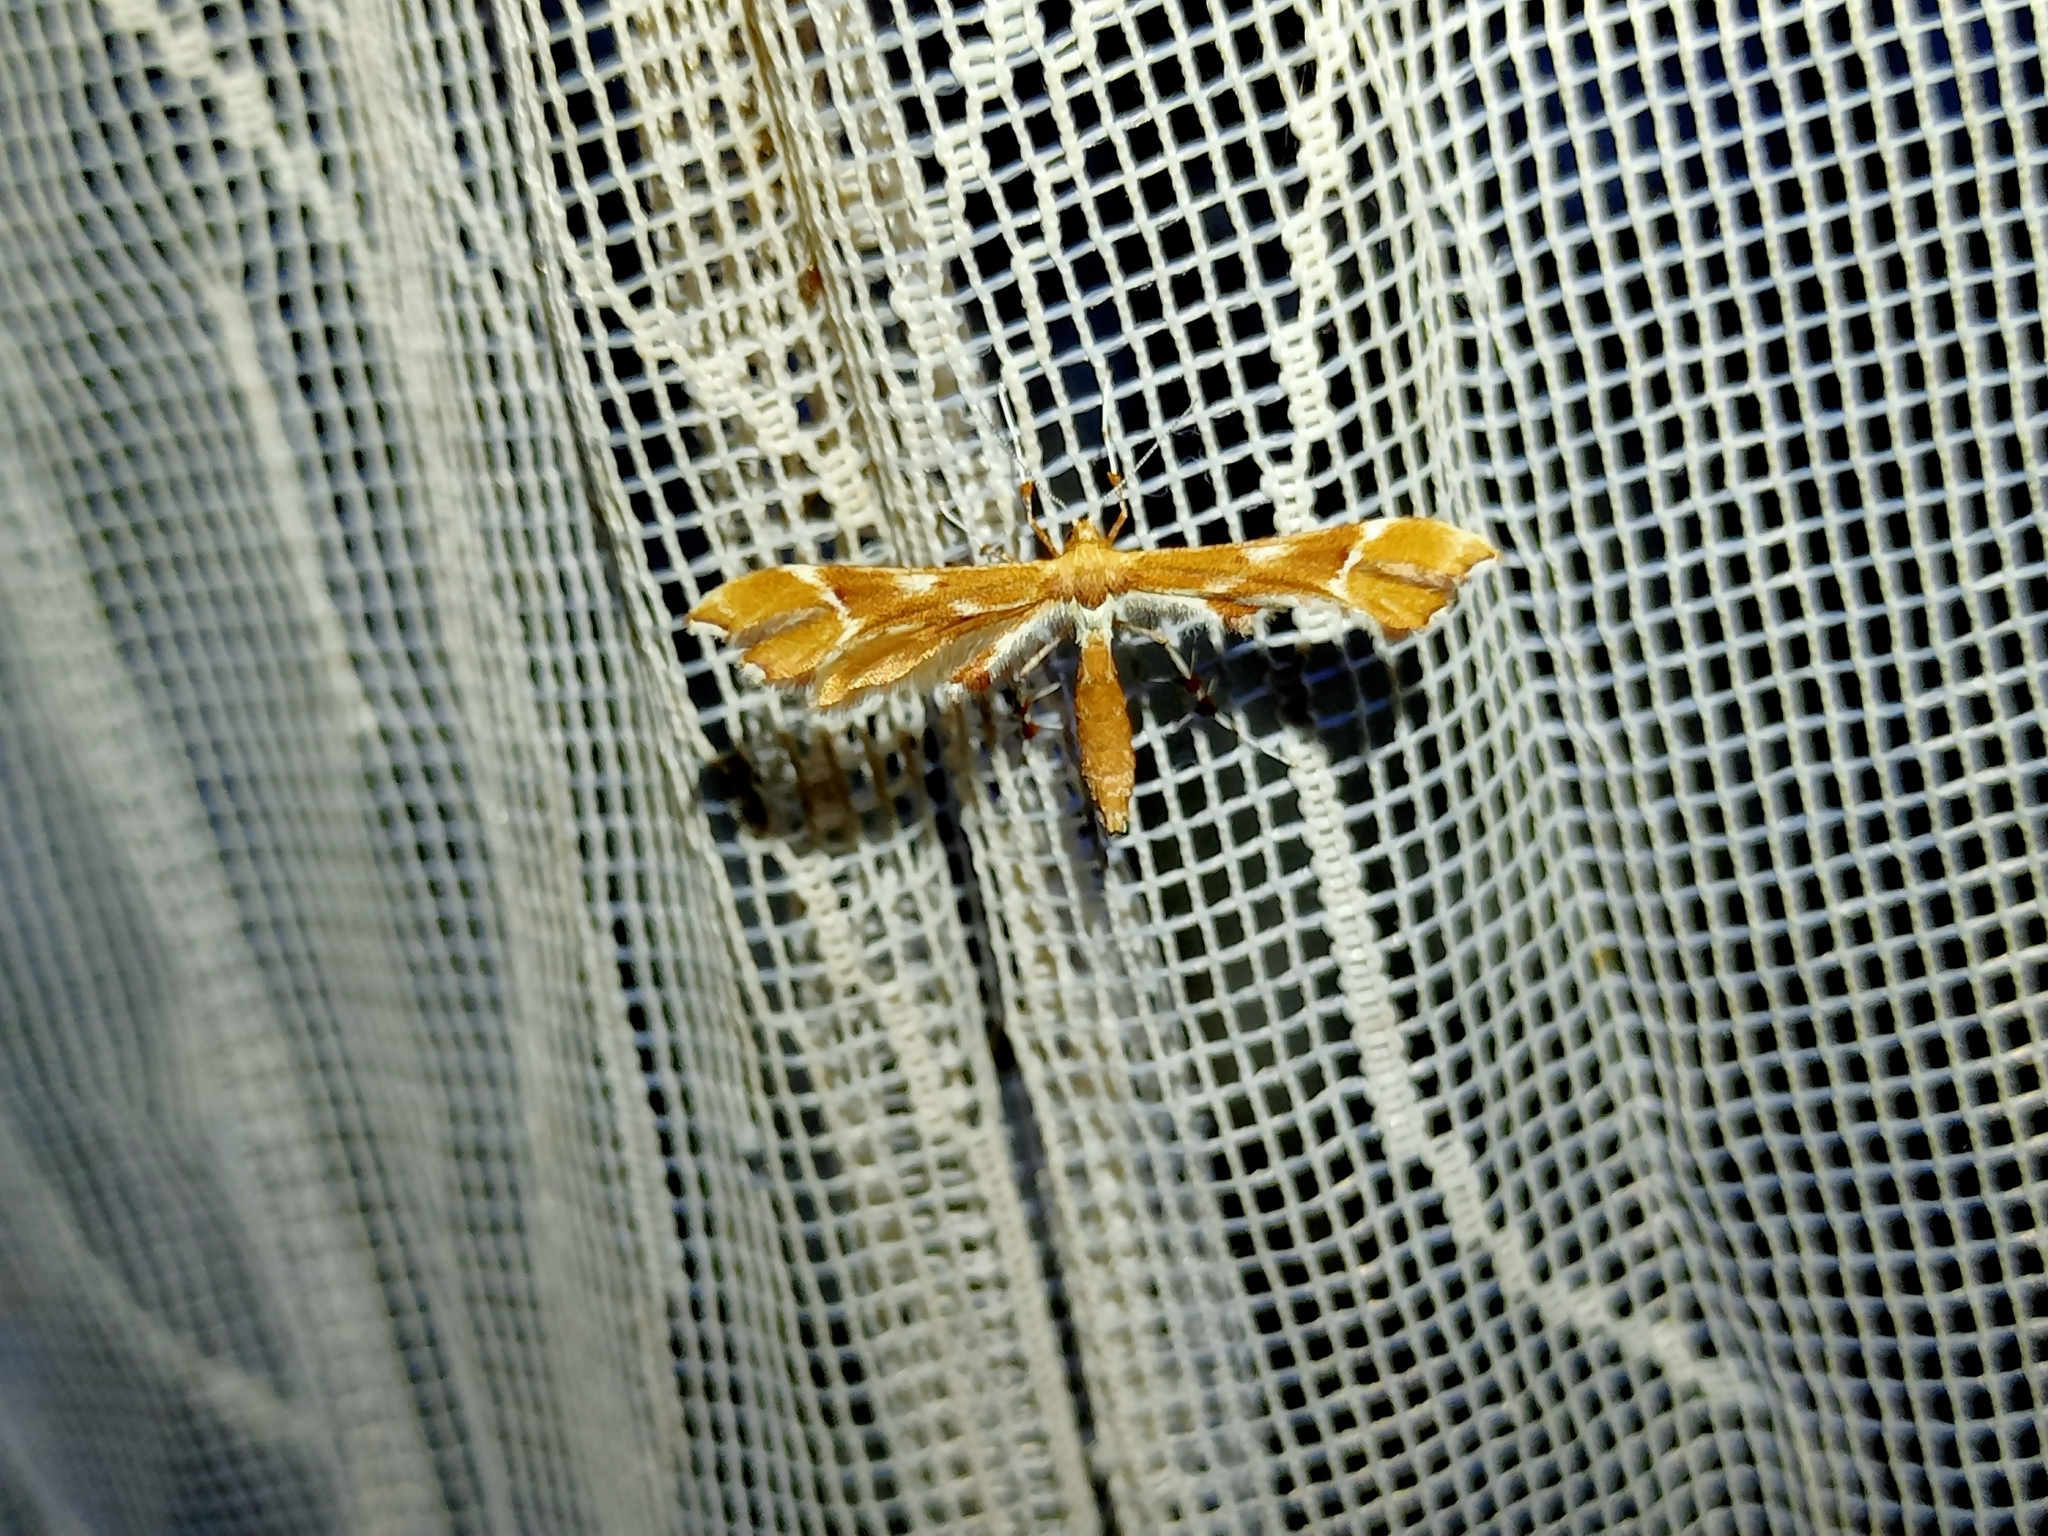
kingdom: Animalia
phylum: Arthropoda
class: Insecta
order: Lepidoptera
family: Pterophoridae
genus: Cnaemidophorus
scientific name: Cnaemidophorus rhododactyla
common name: Rose plume
